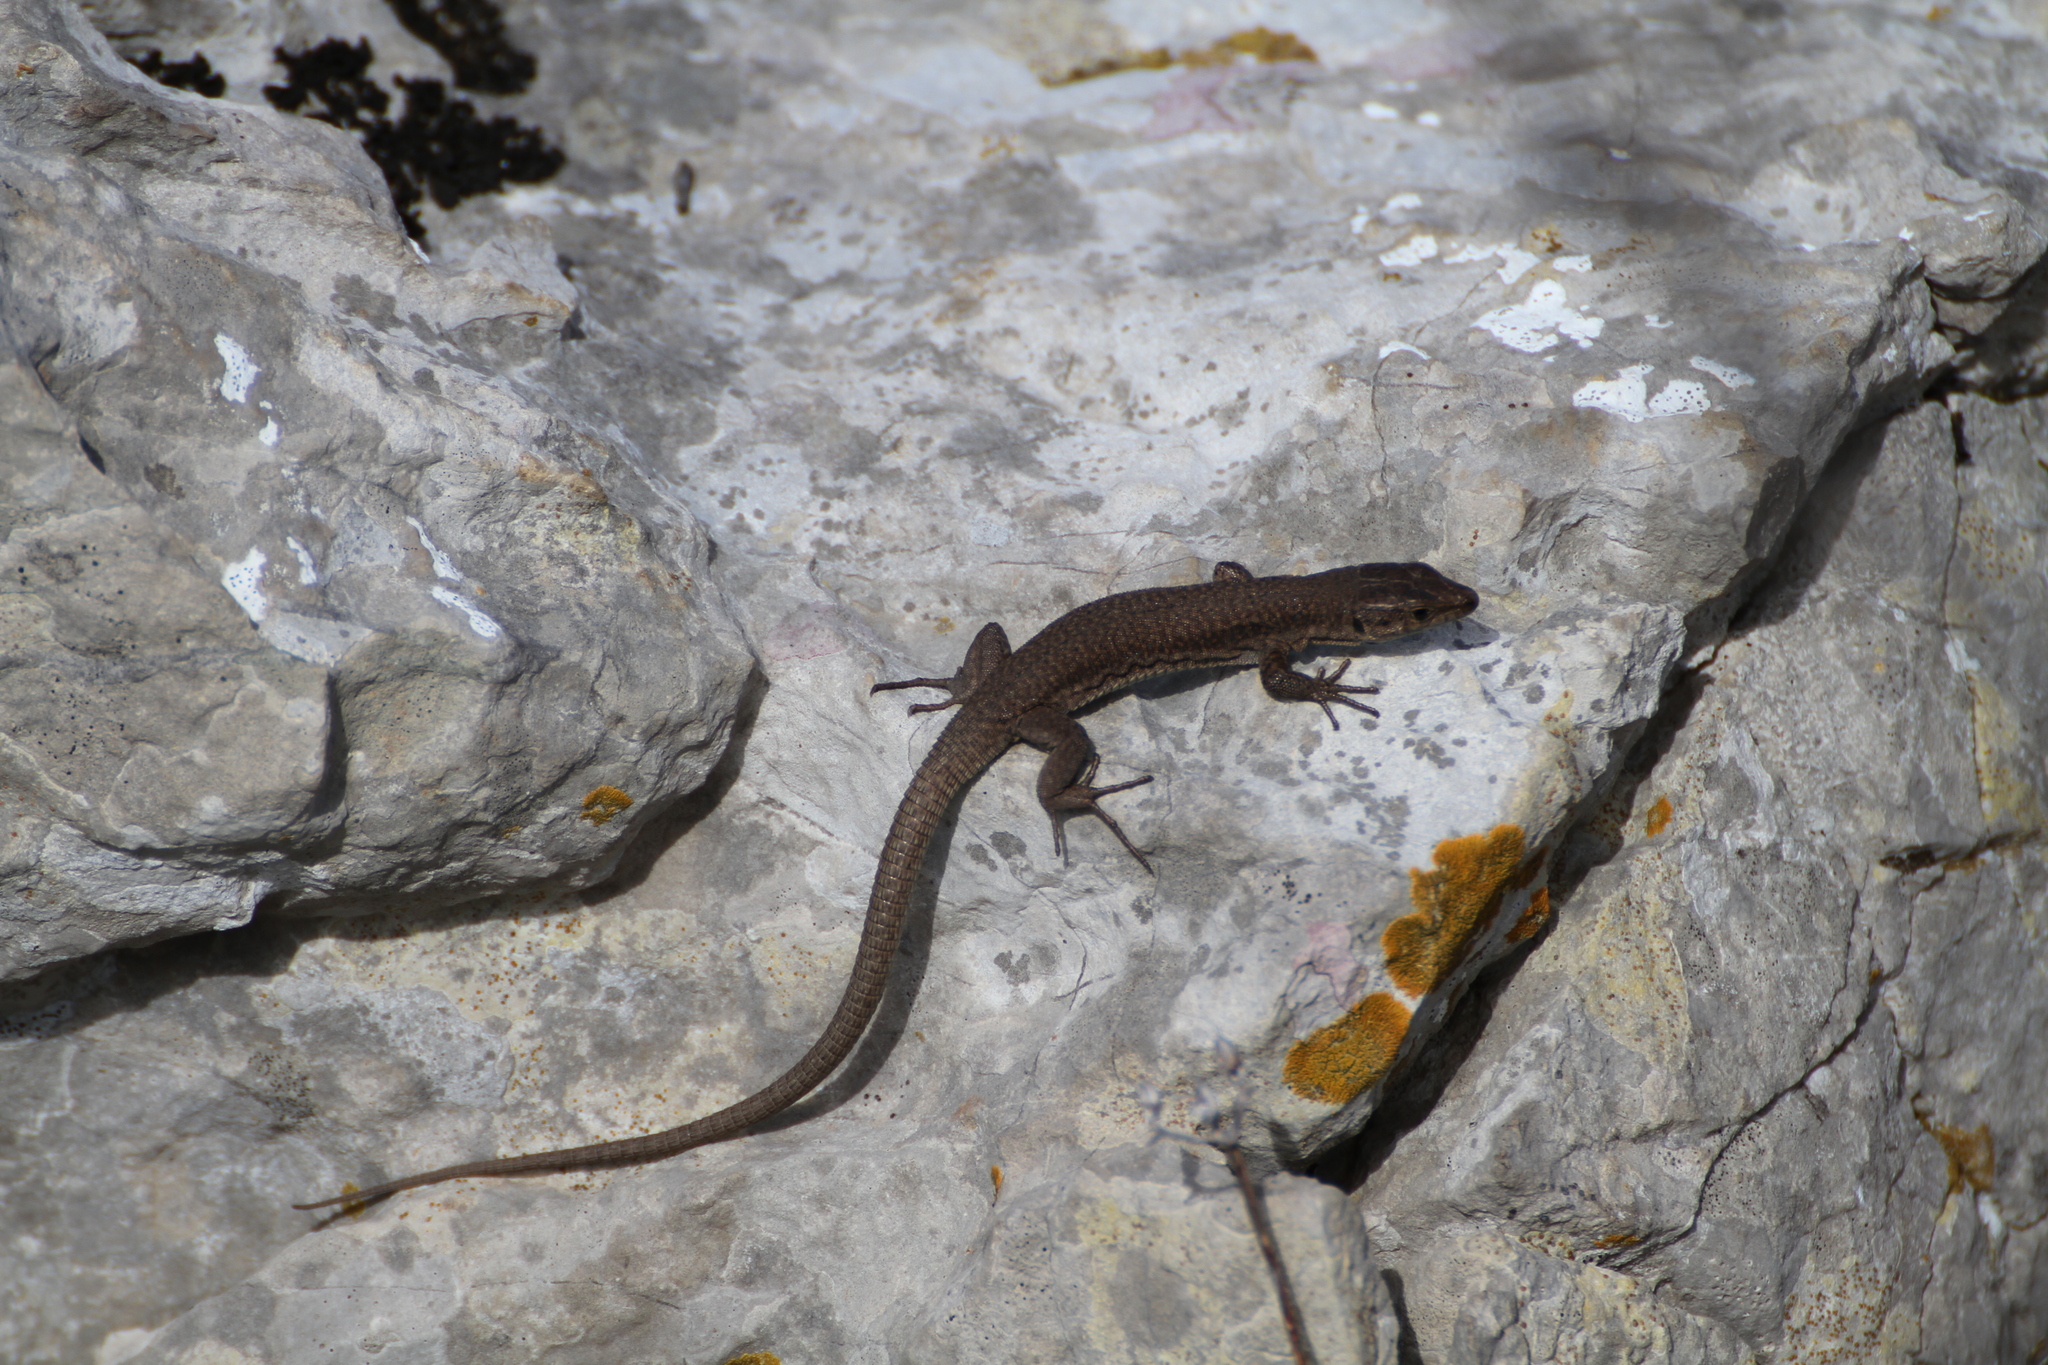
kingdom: Animalia
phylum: Chordata
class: Squamata
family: Lacertidae
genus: Podarcis
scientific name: Podarcis liolepis
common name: Catalonian wall lizard
